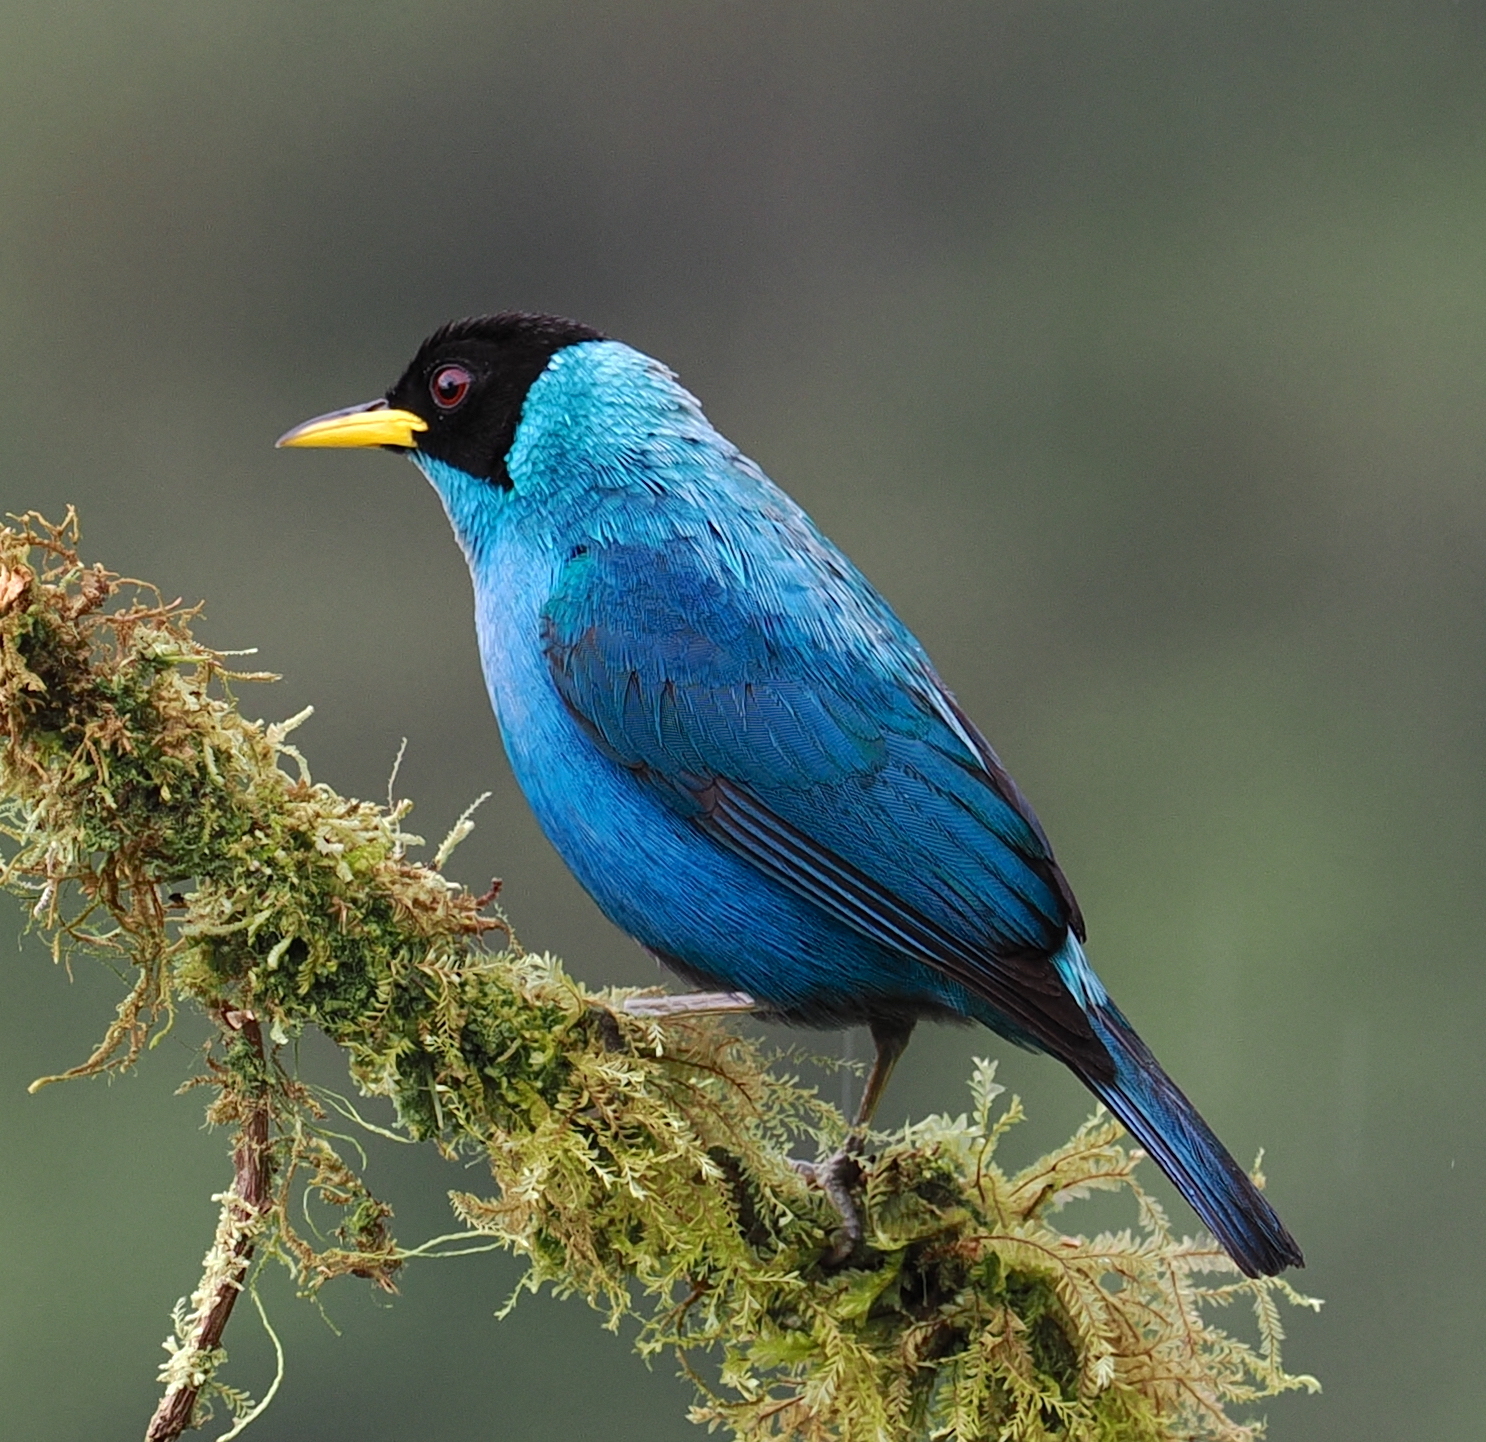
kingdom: Animalia
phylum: Chordata
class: Aves
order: Passeriformes
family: Thraupidae
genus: Chlorophanes
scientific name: Chlorophanes spiza
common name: Green honeycreeper
